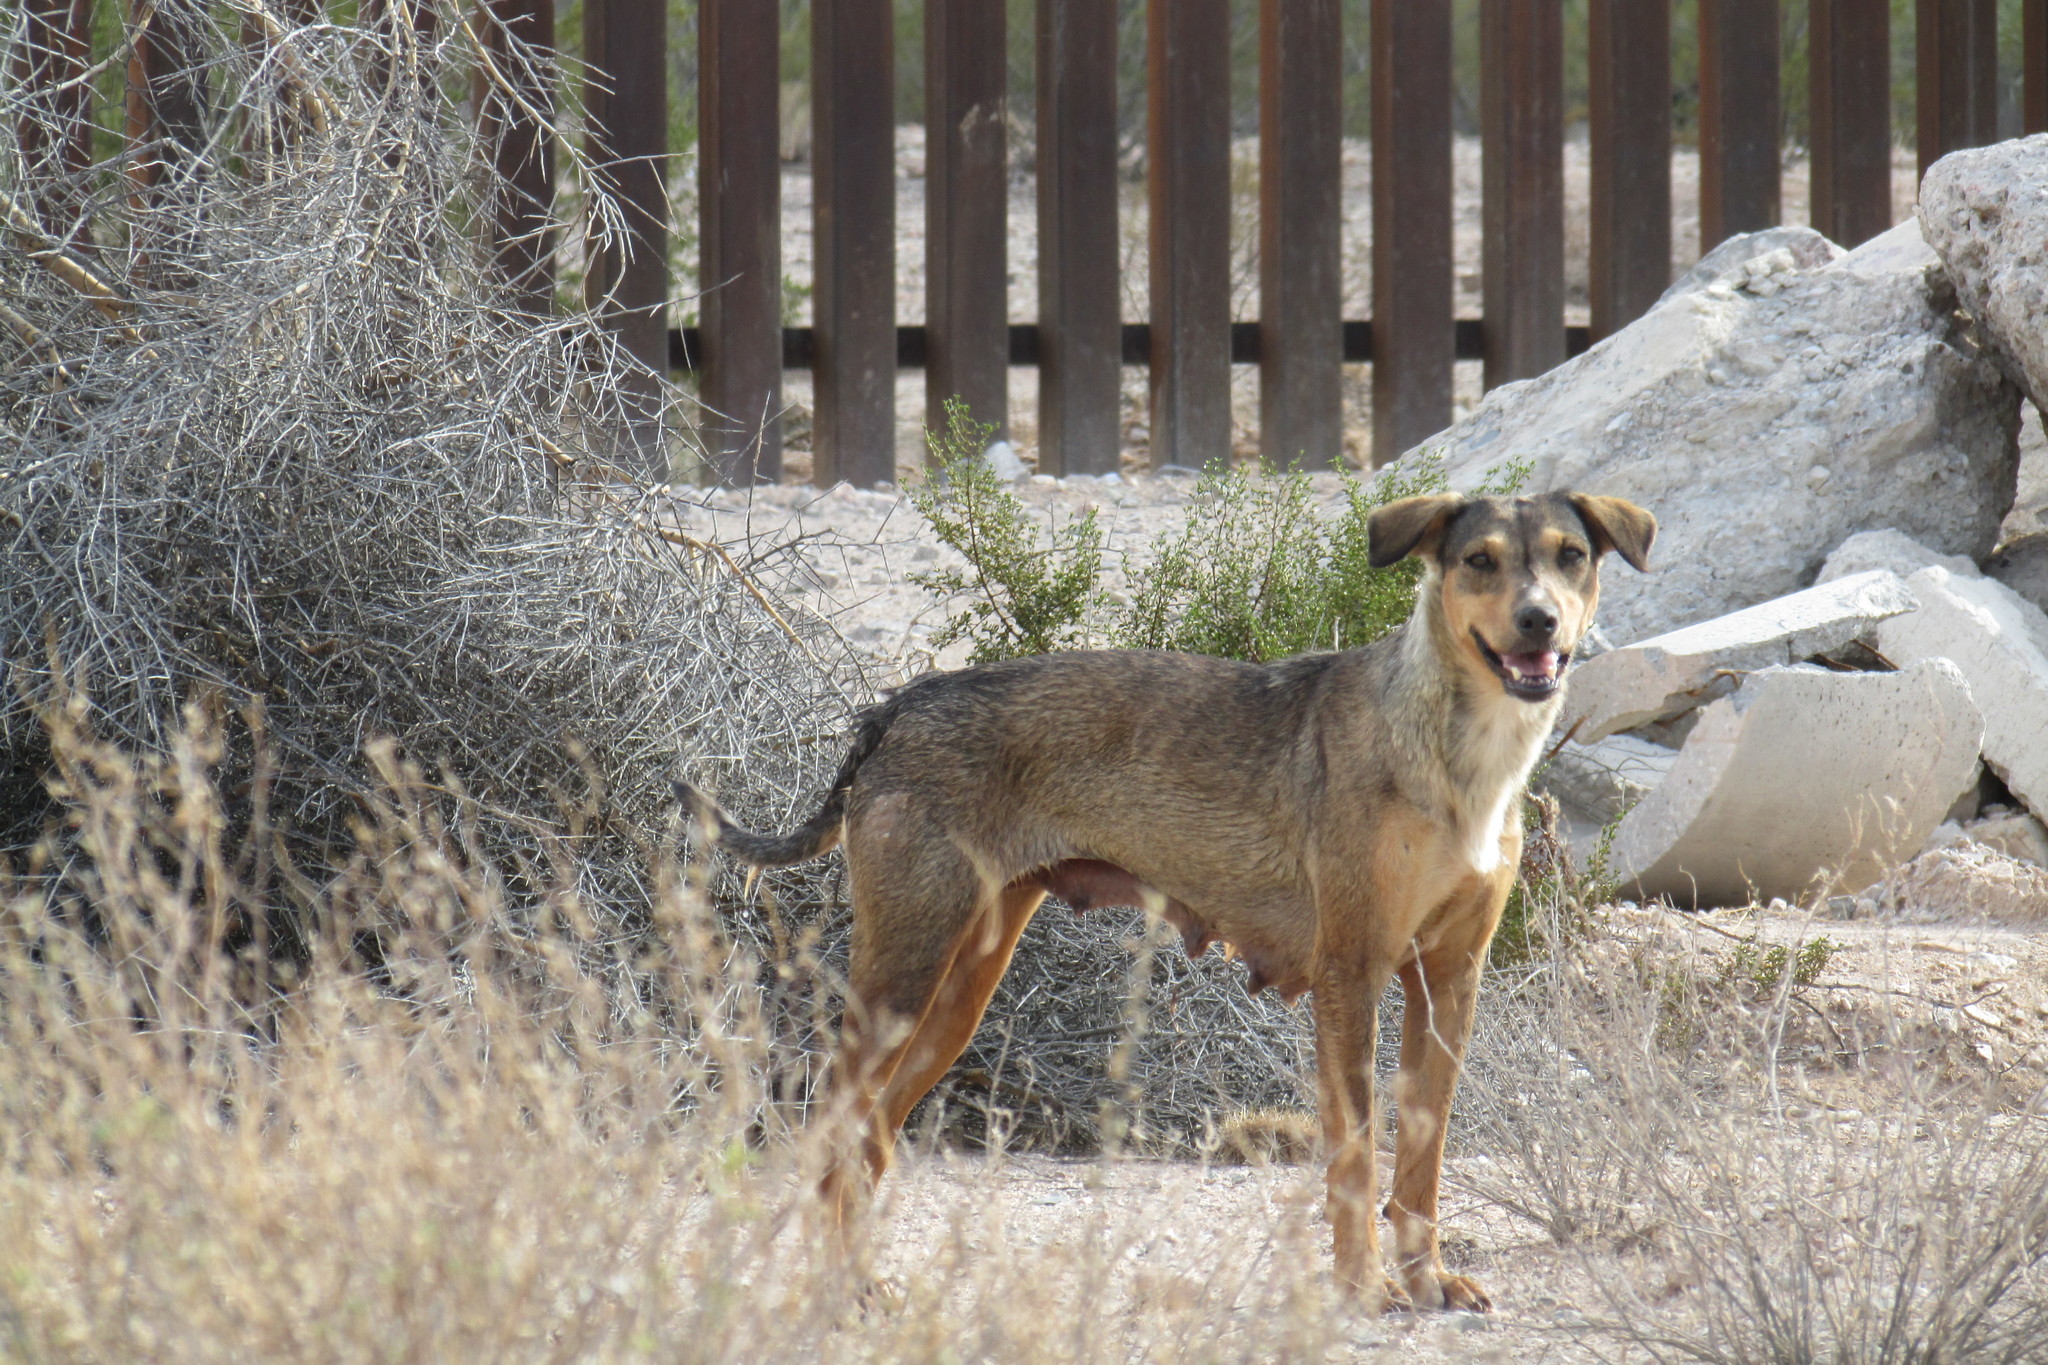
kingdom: Animalia
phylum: Chordata
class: Mammalia
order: Carnivora
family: Canidae
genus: Canis
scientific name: Canis lupus
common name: Gray wolf
